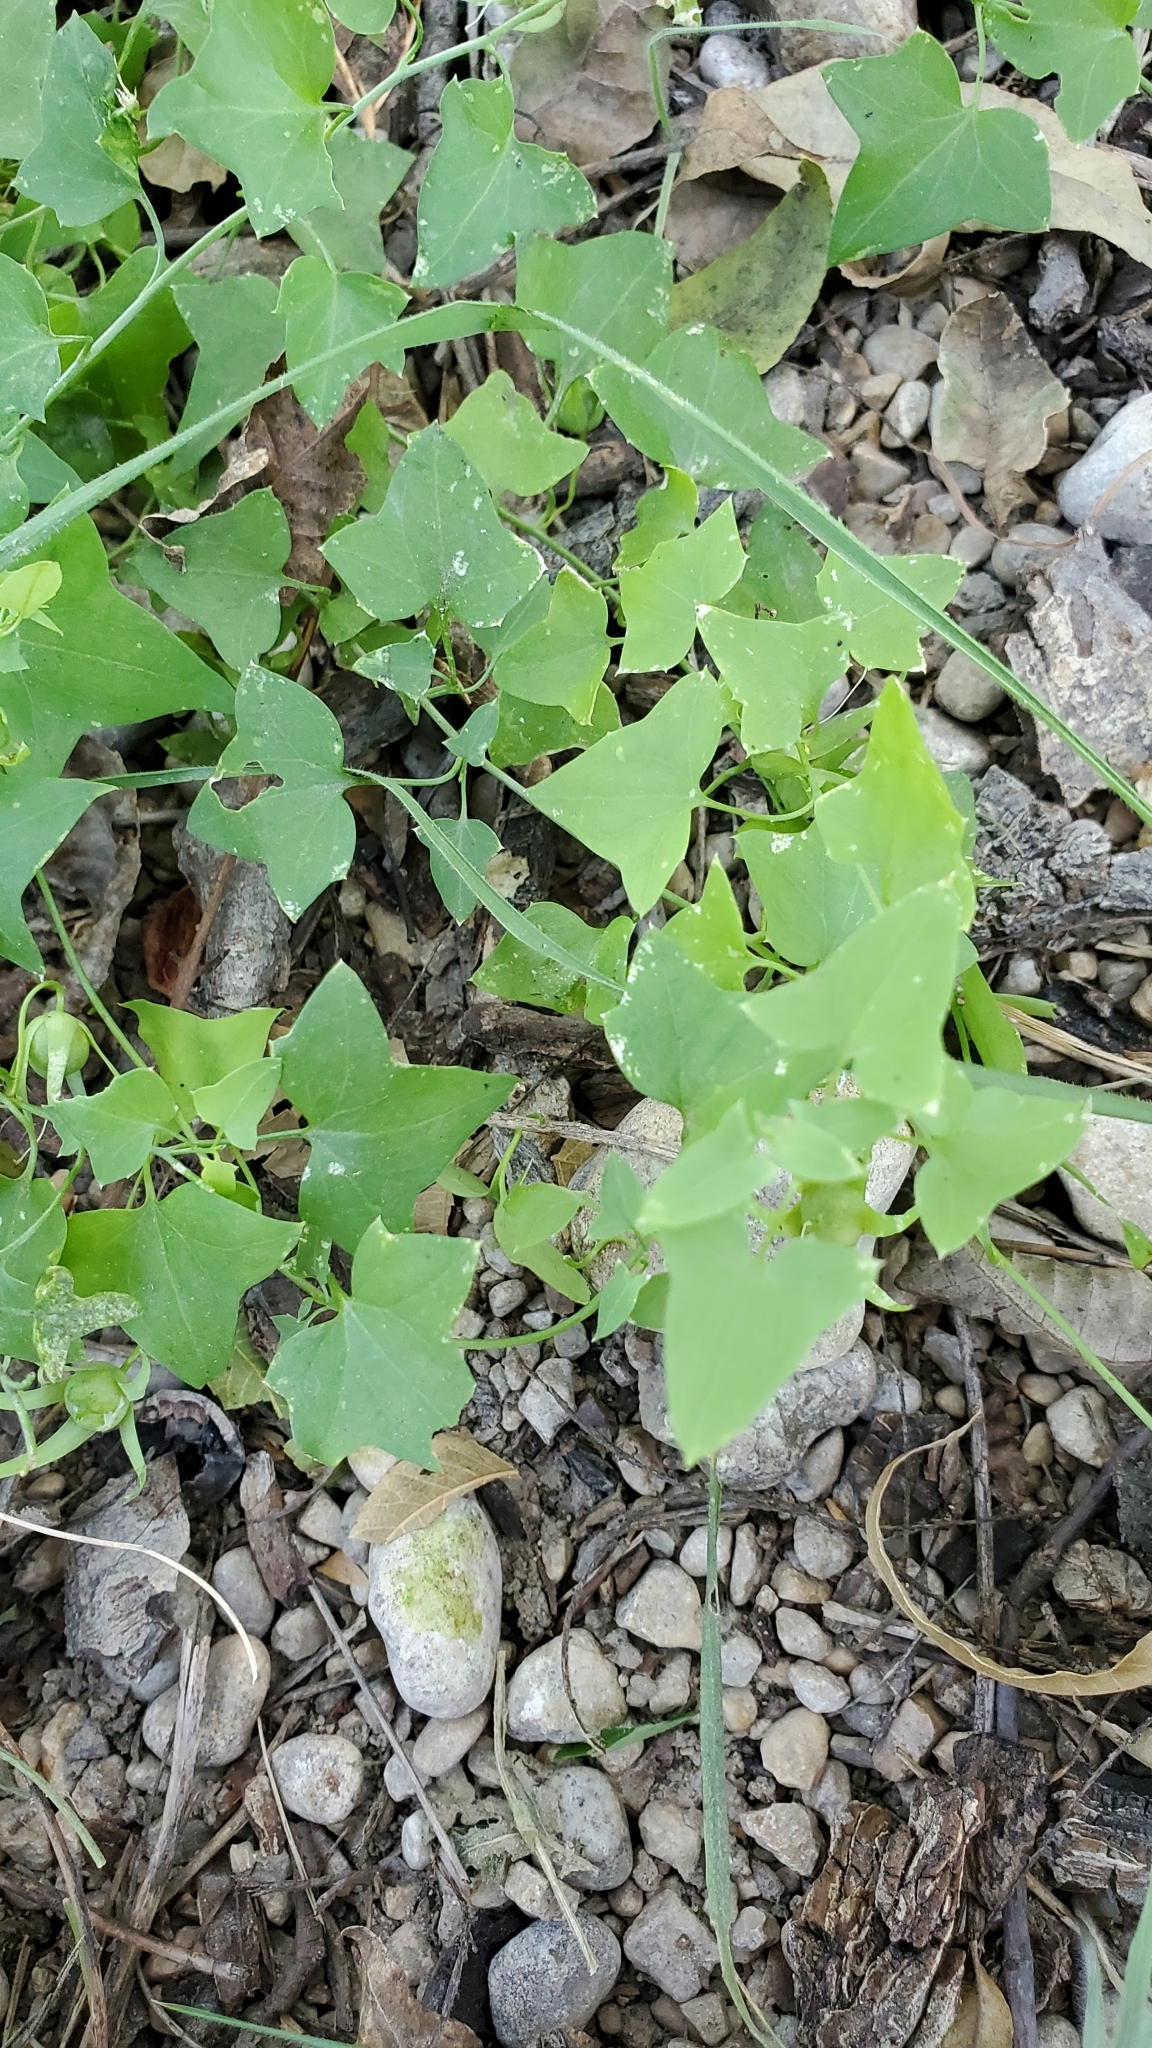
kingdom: Plantae
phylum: Tracheophyta
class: Magnoliopsida
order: Lamiales
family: Plantaginaceae
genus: Maurandella
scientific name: Maurandella antirrhiniflora
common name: Violet twining-snapdragon
